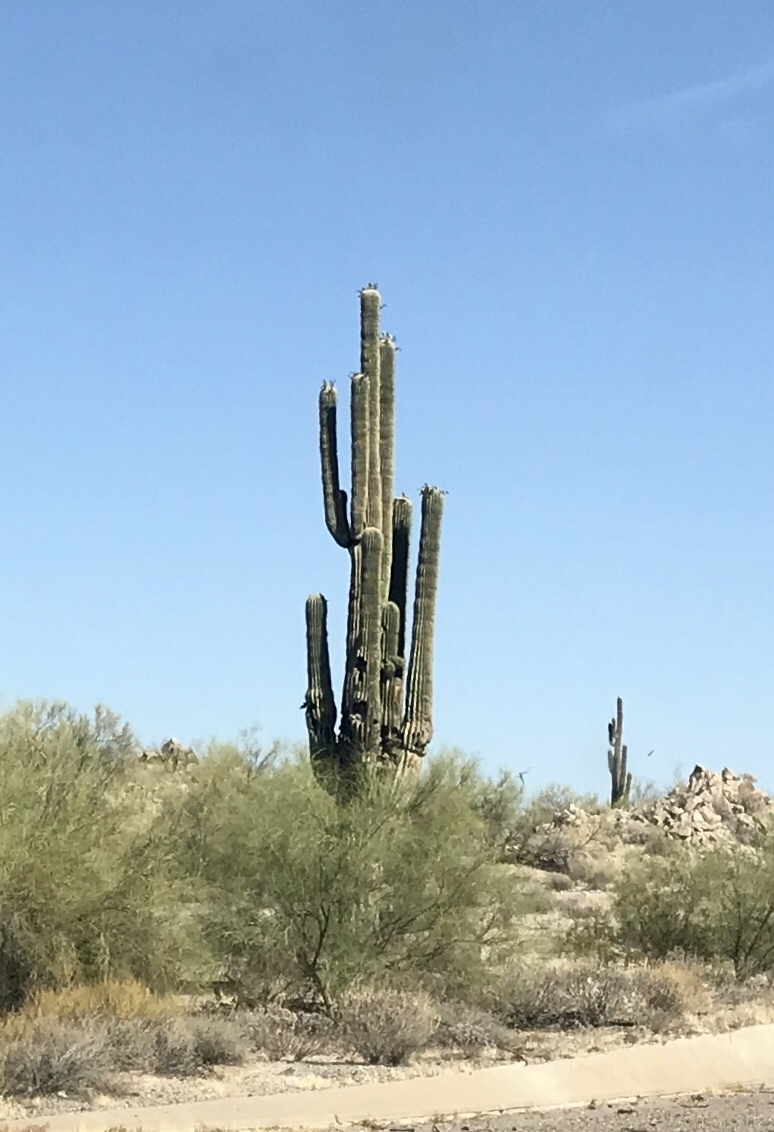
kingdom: Plantae
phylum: Tracheophyta
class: Magnoliopsida
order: Caryophyllales
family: Cactaceae
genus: Carnegiea
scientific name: Carnegiea gigantea
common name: Saguaro
